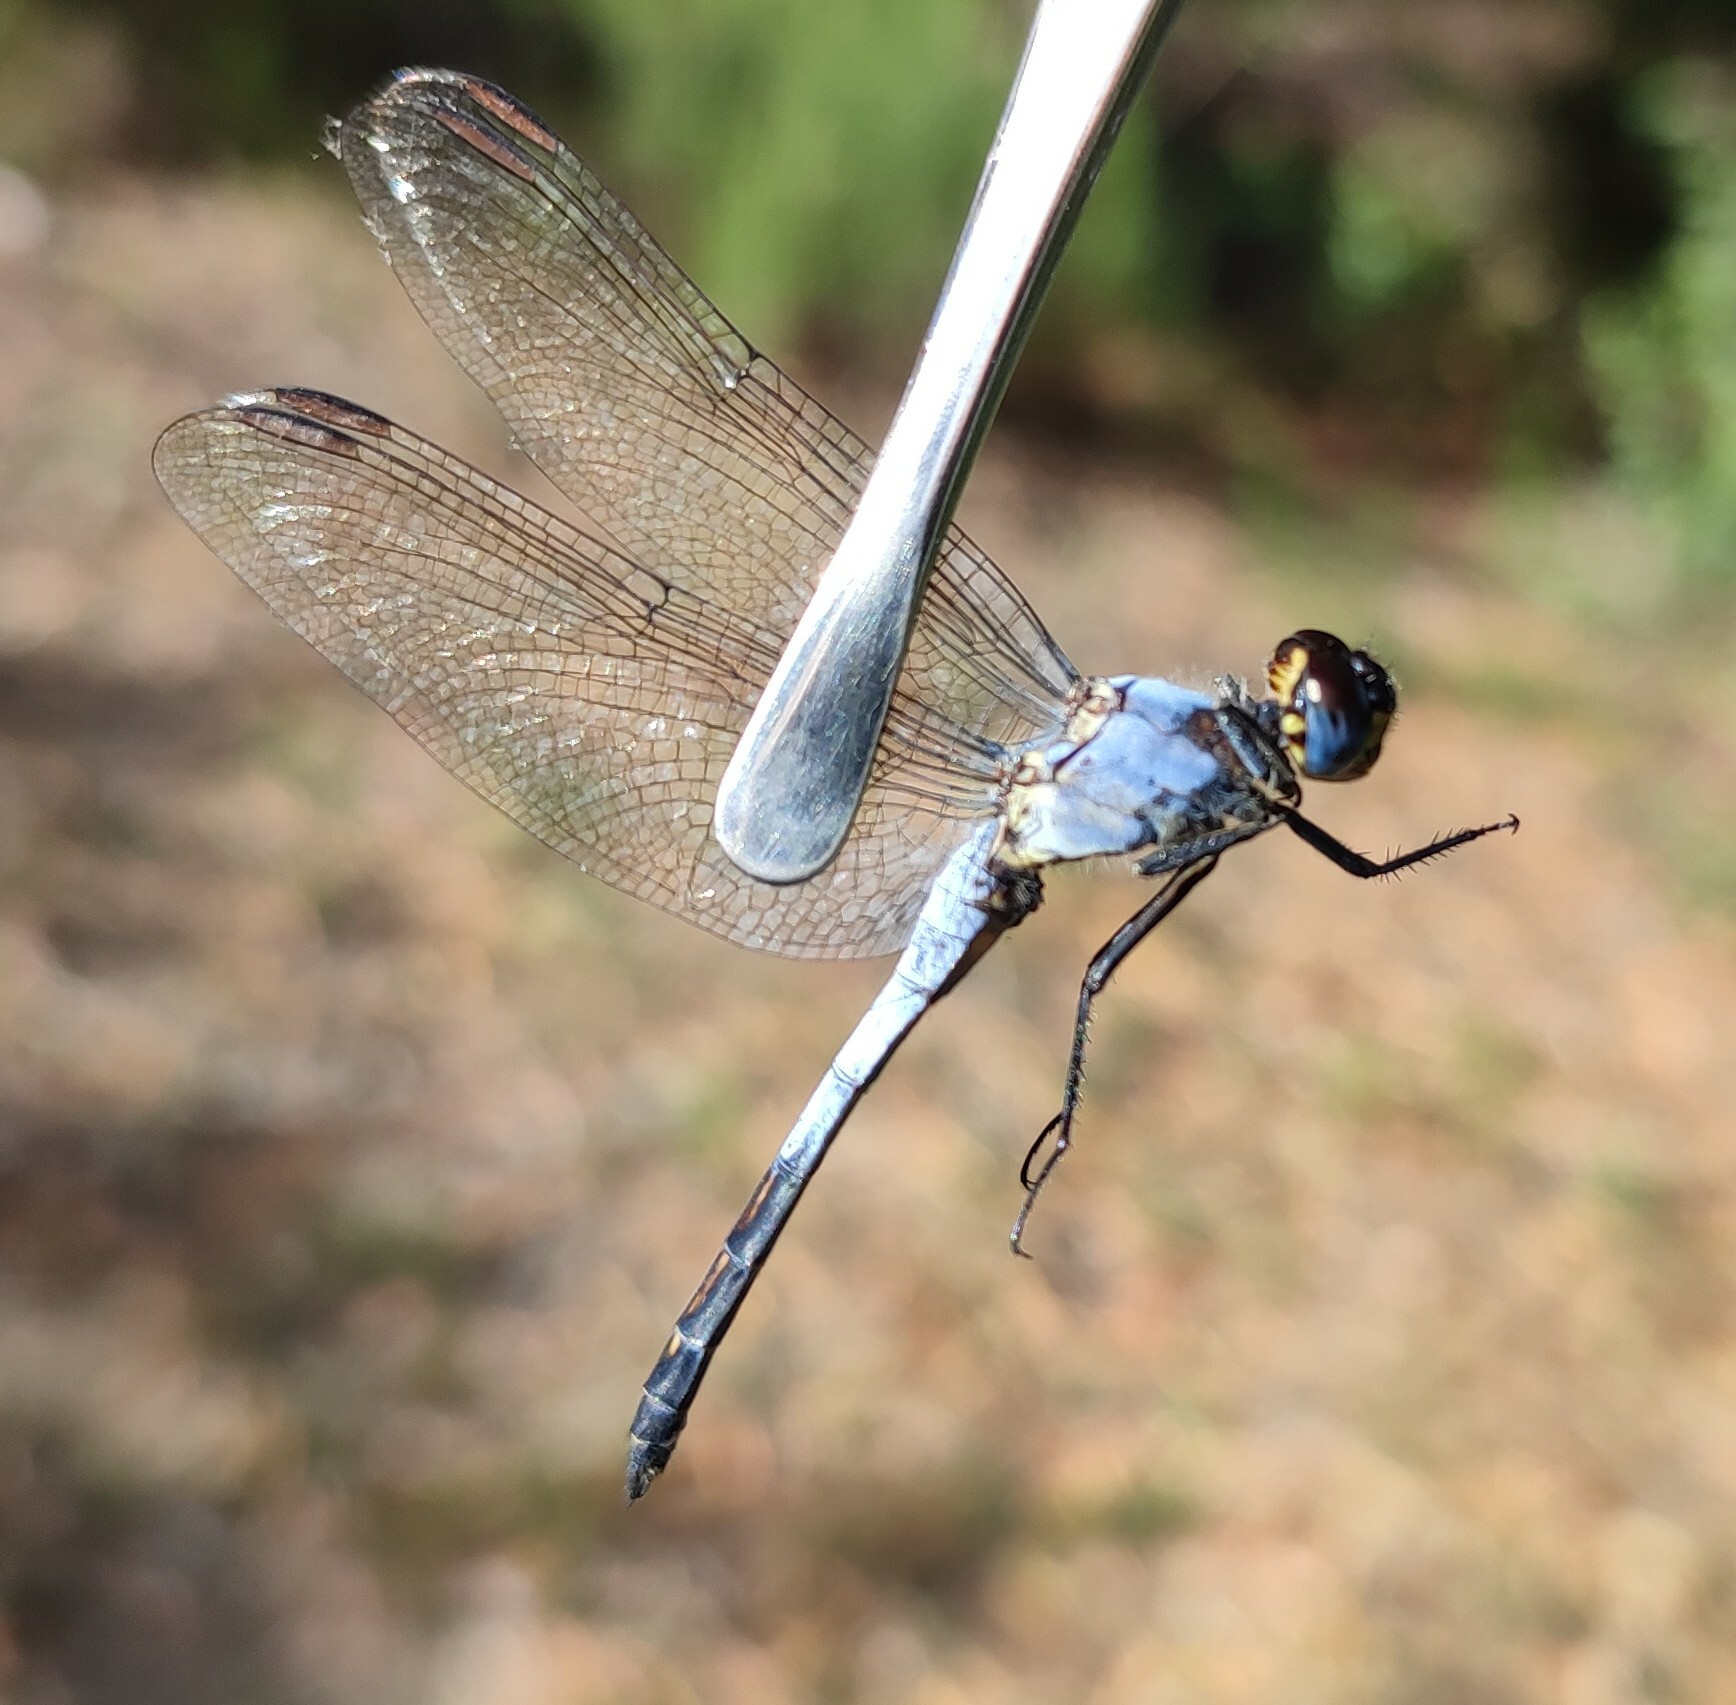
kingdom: Animalia
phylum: Arthropoda
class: Insecta
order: Odonata
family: Libellulidae
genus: Nesciothemis
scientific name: Nesciothemis farinosa
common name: Eastern blacktail
